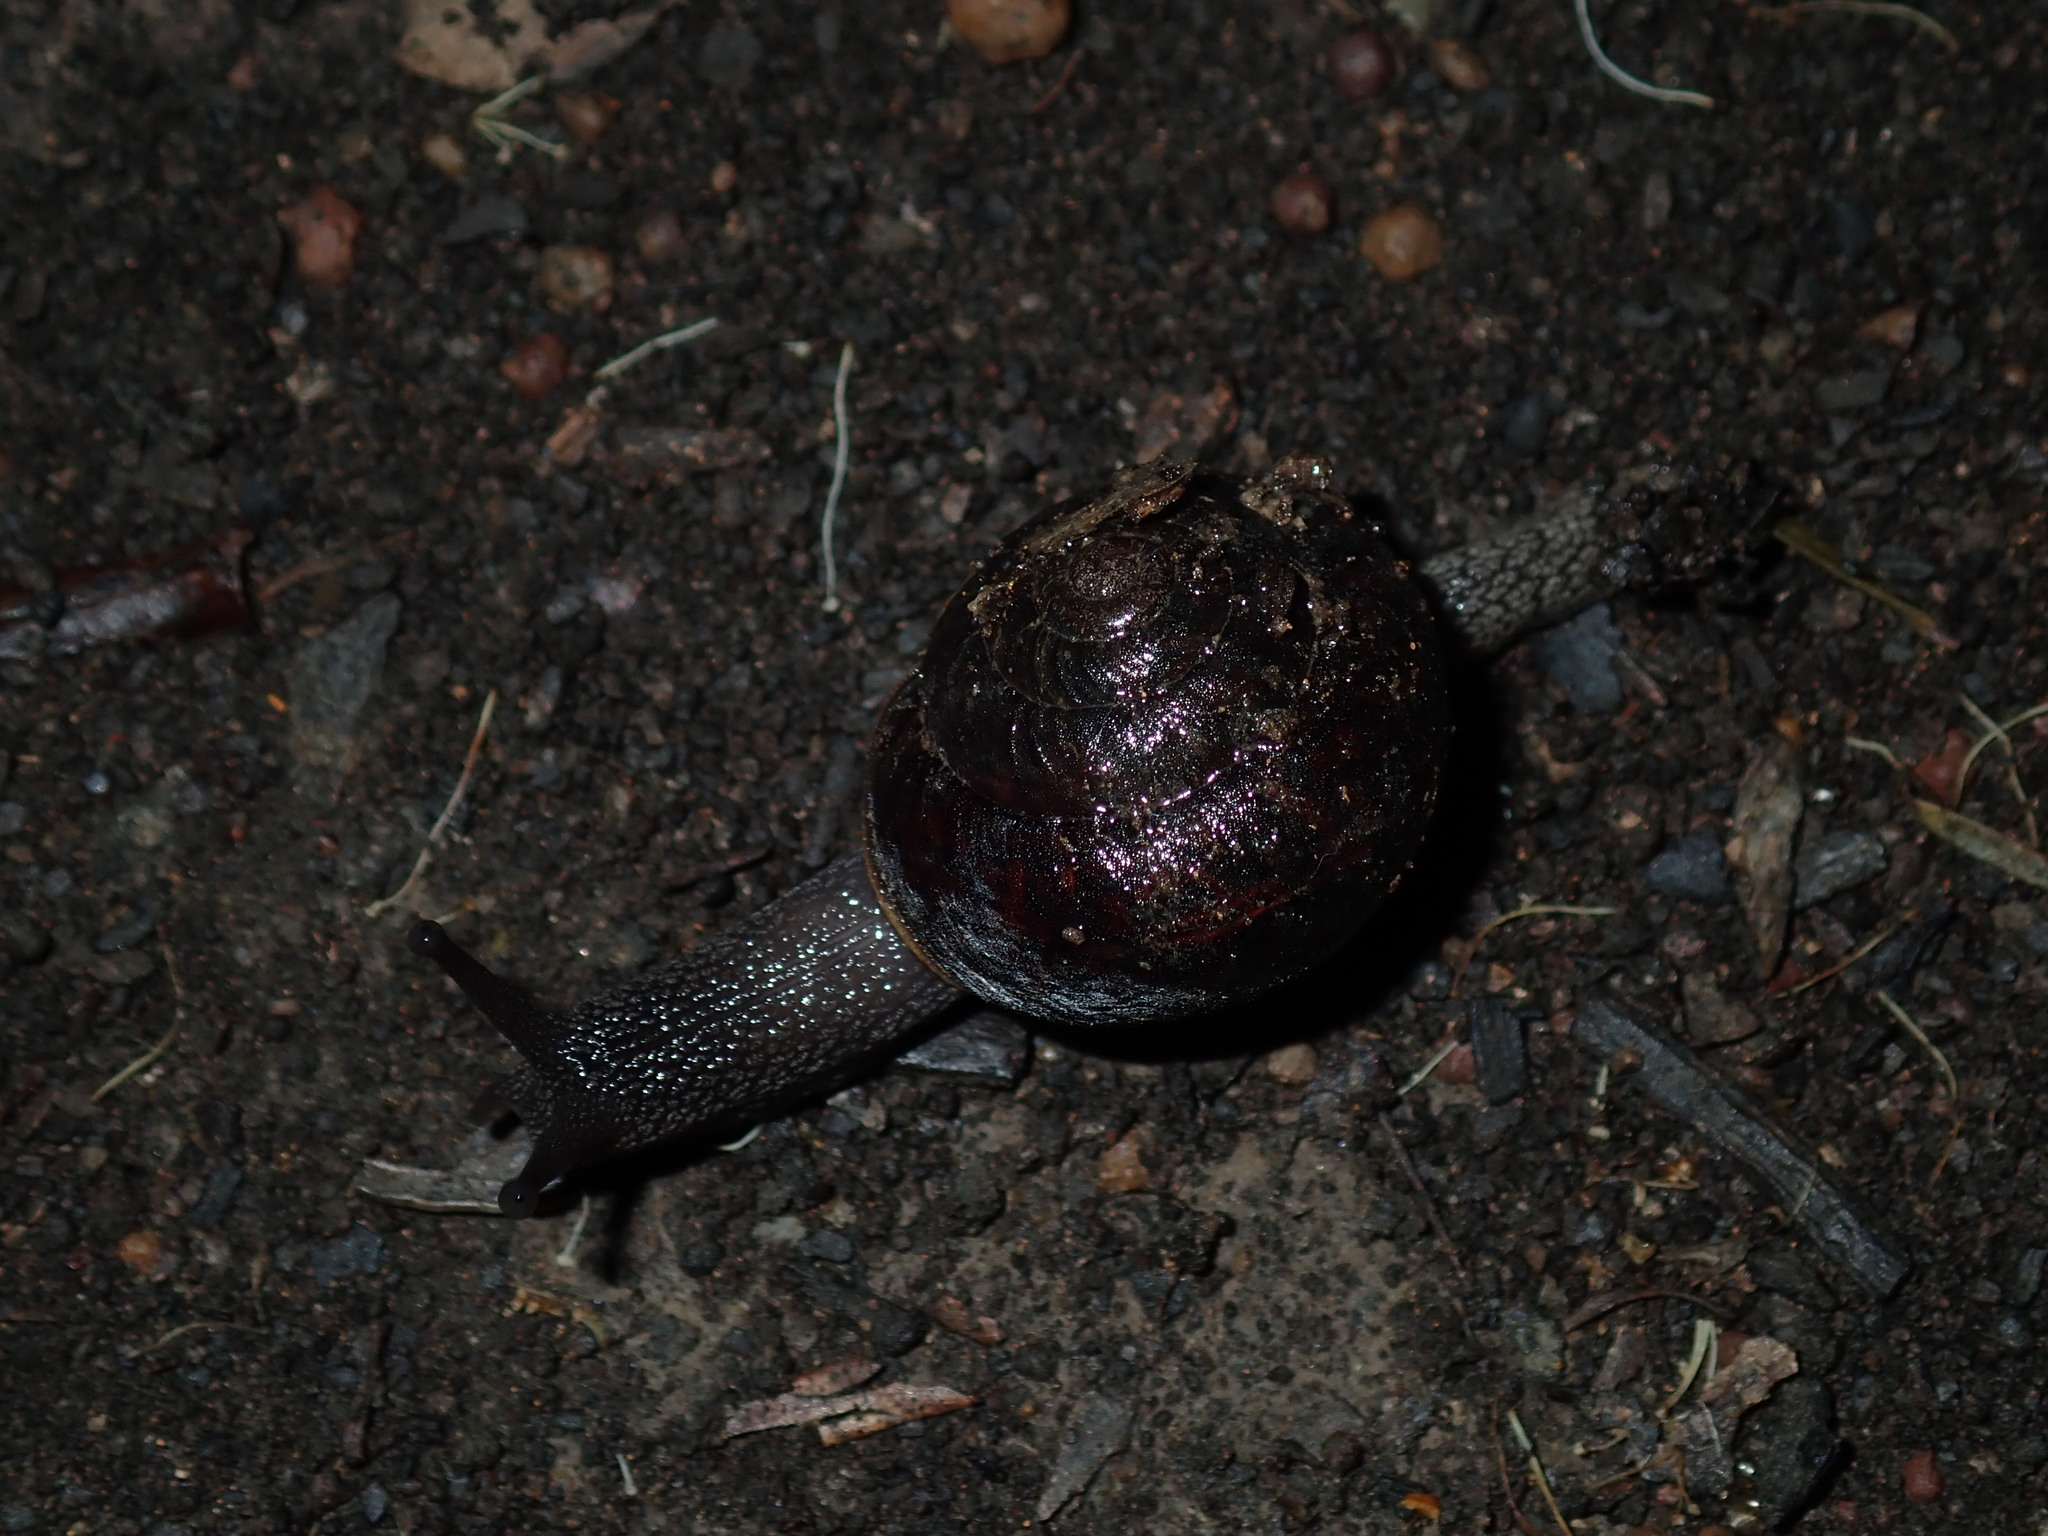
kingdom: Animalia
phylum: Mollusca
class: Gastropoda
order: Stylommatophora
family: Camaenidae
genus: Sauroconcha
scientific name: Sauroconcha sheai
